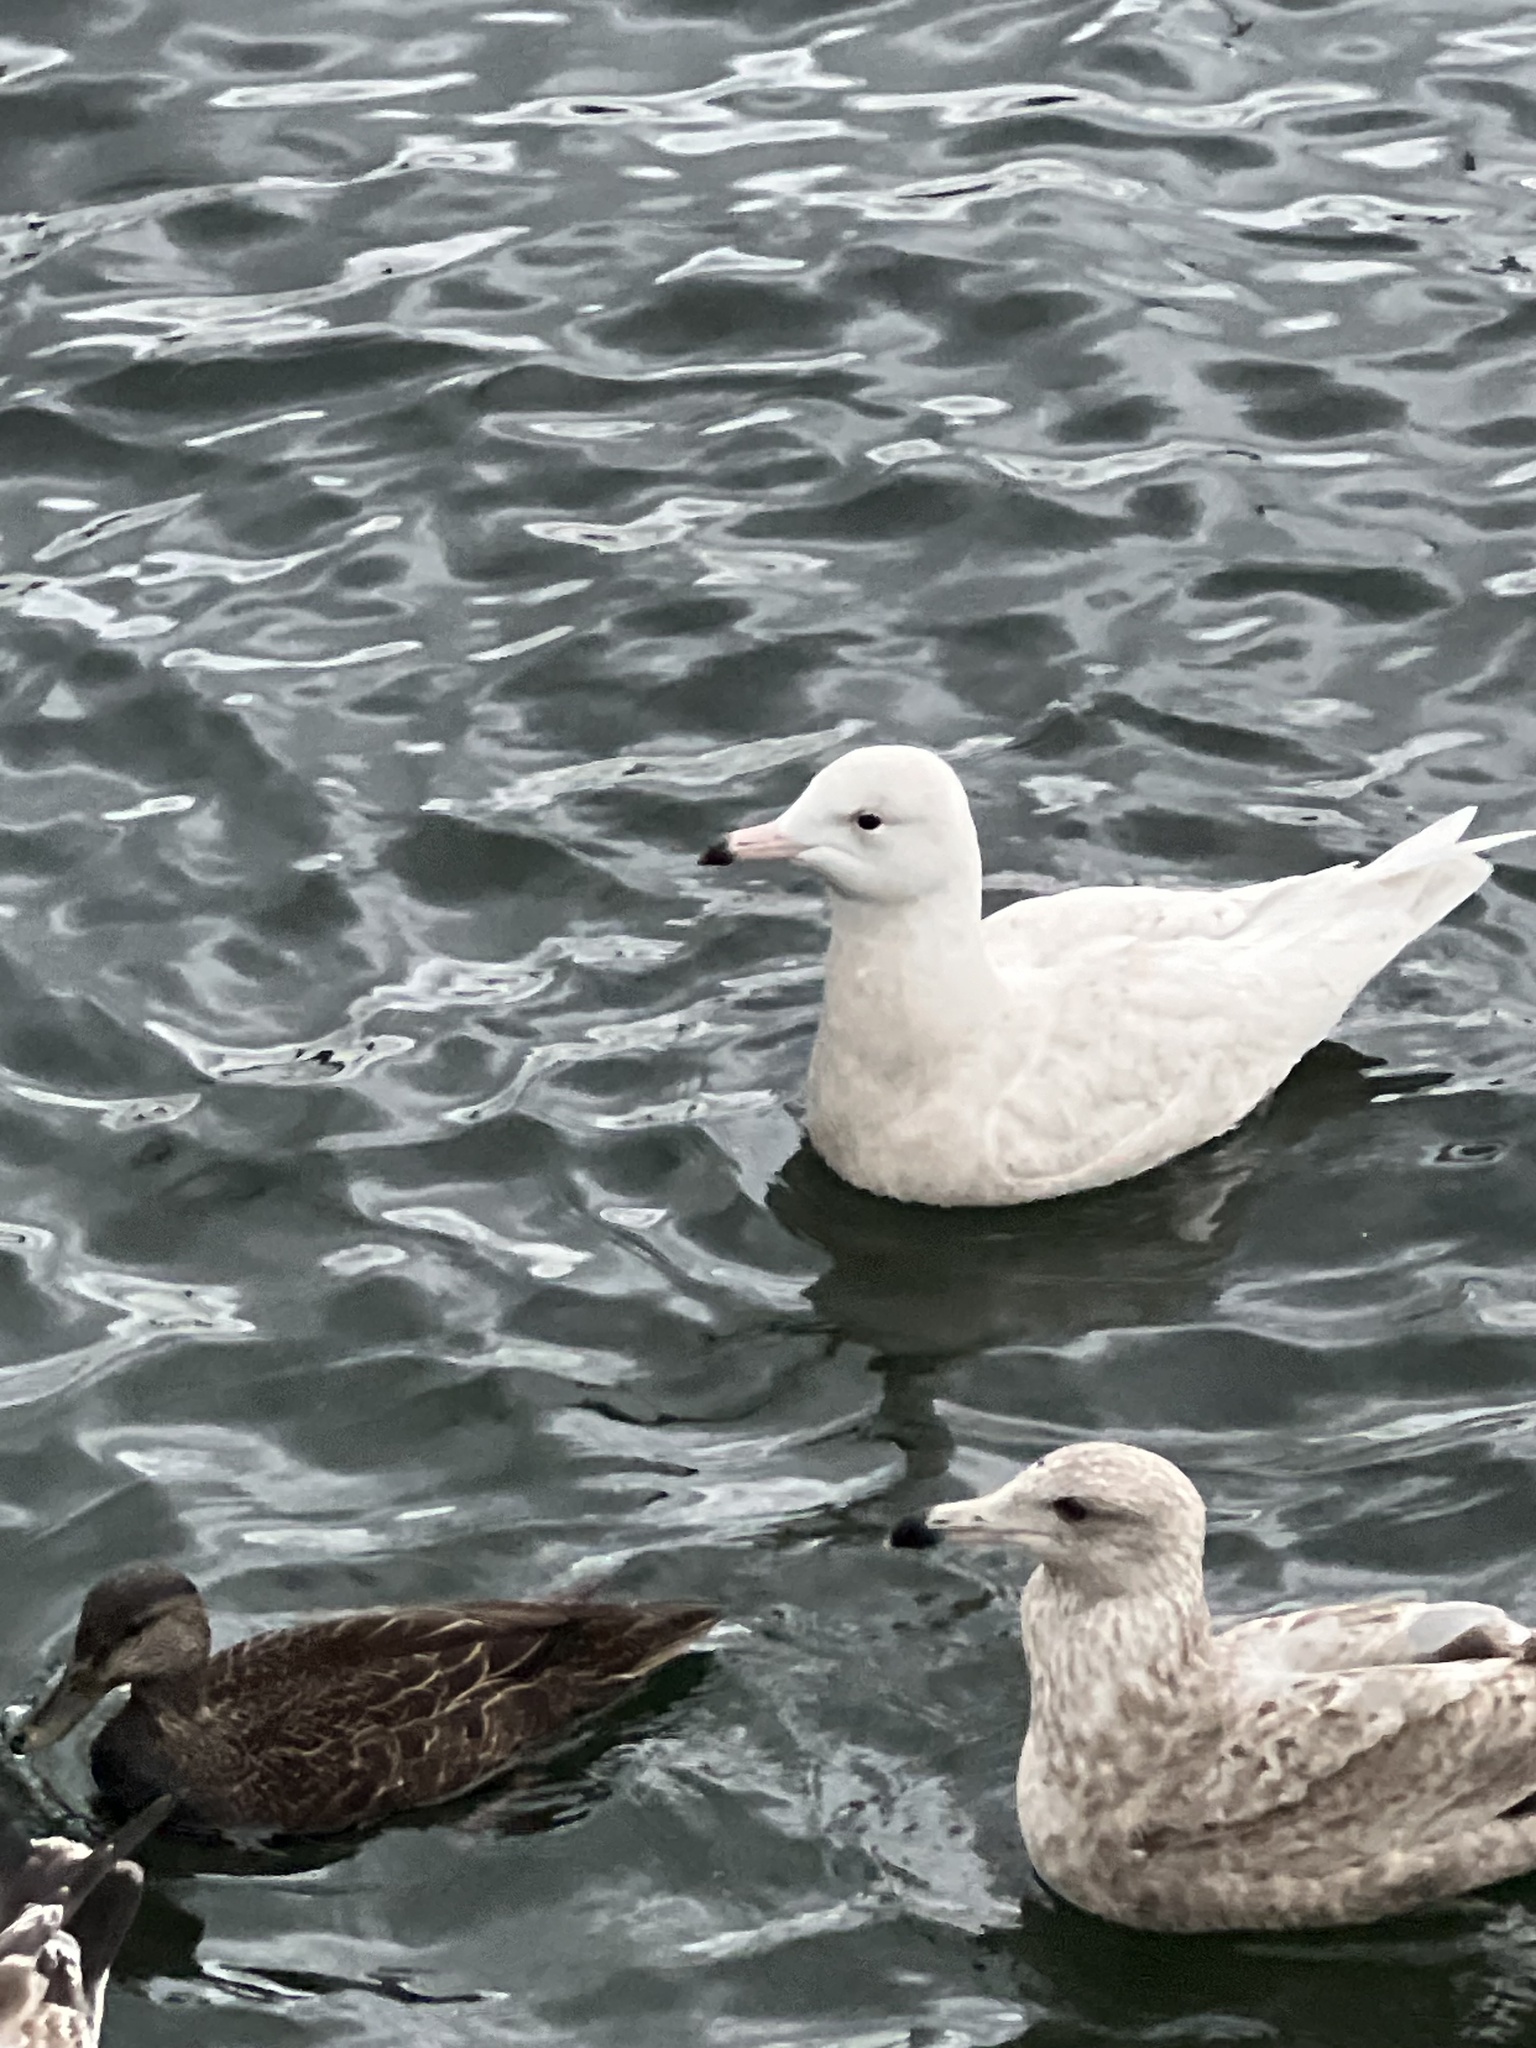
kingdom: Animalia
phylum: Chordata
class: Aves
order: Charadriiformes
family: Laridae
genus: Larus
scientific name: Larus hyperboreus
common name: Glaucous gull
